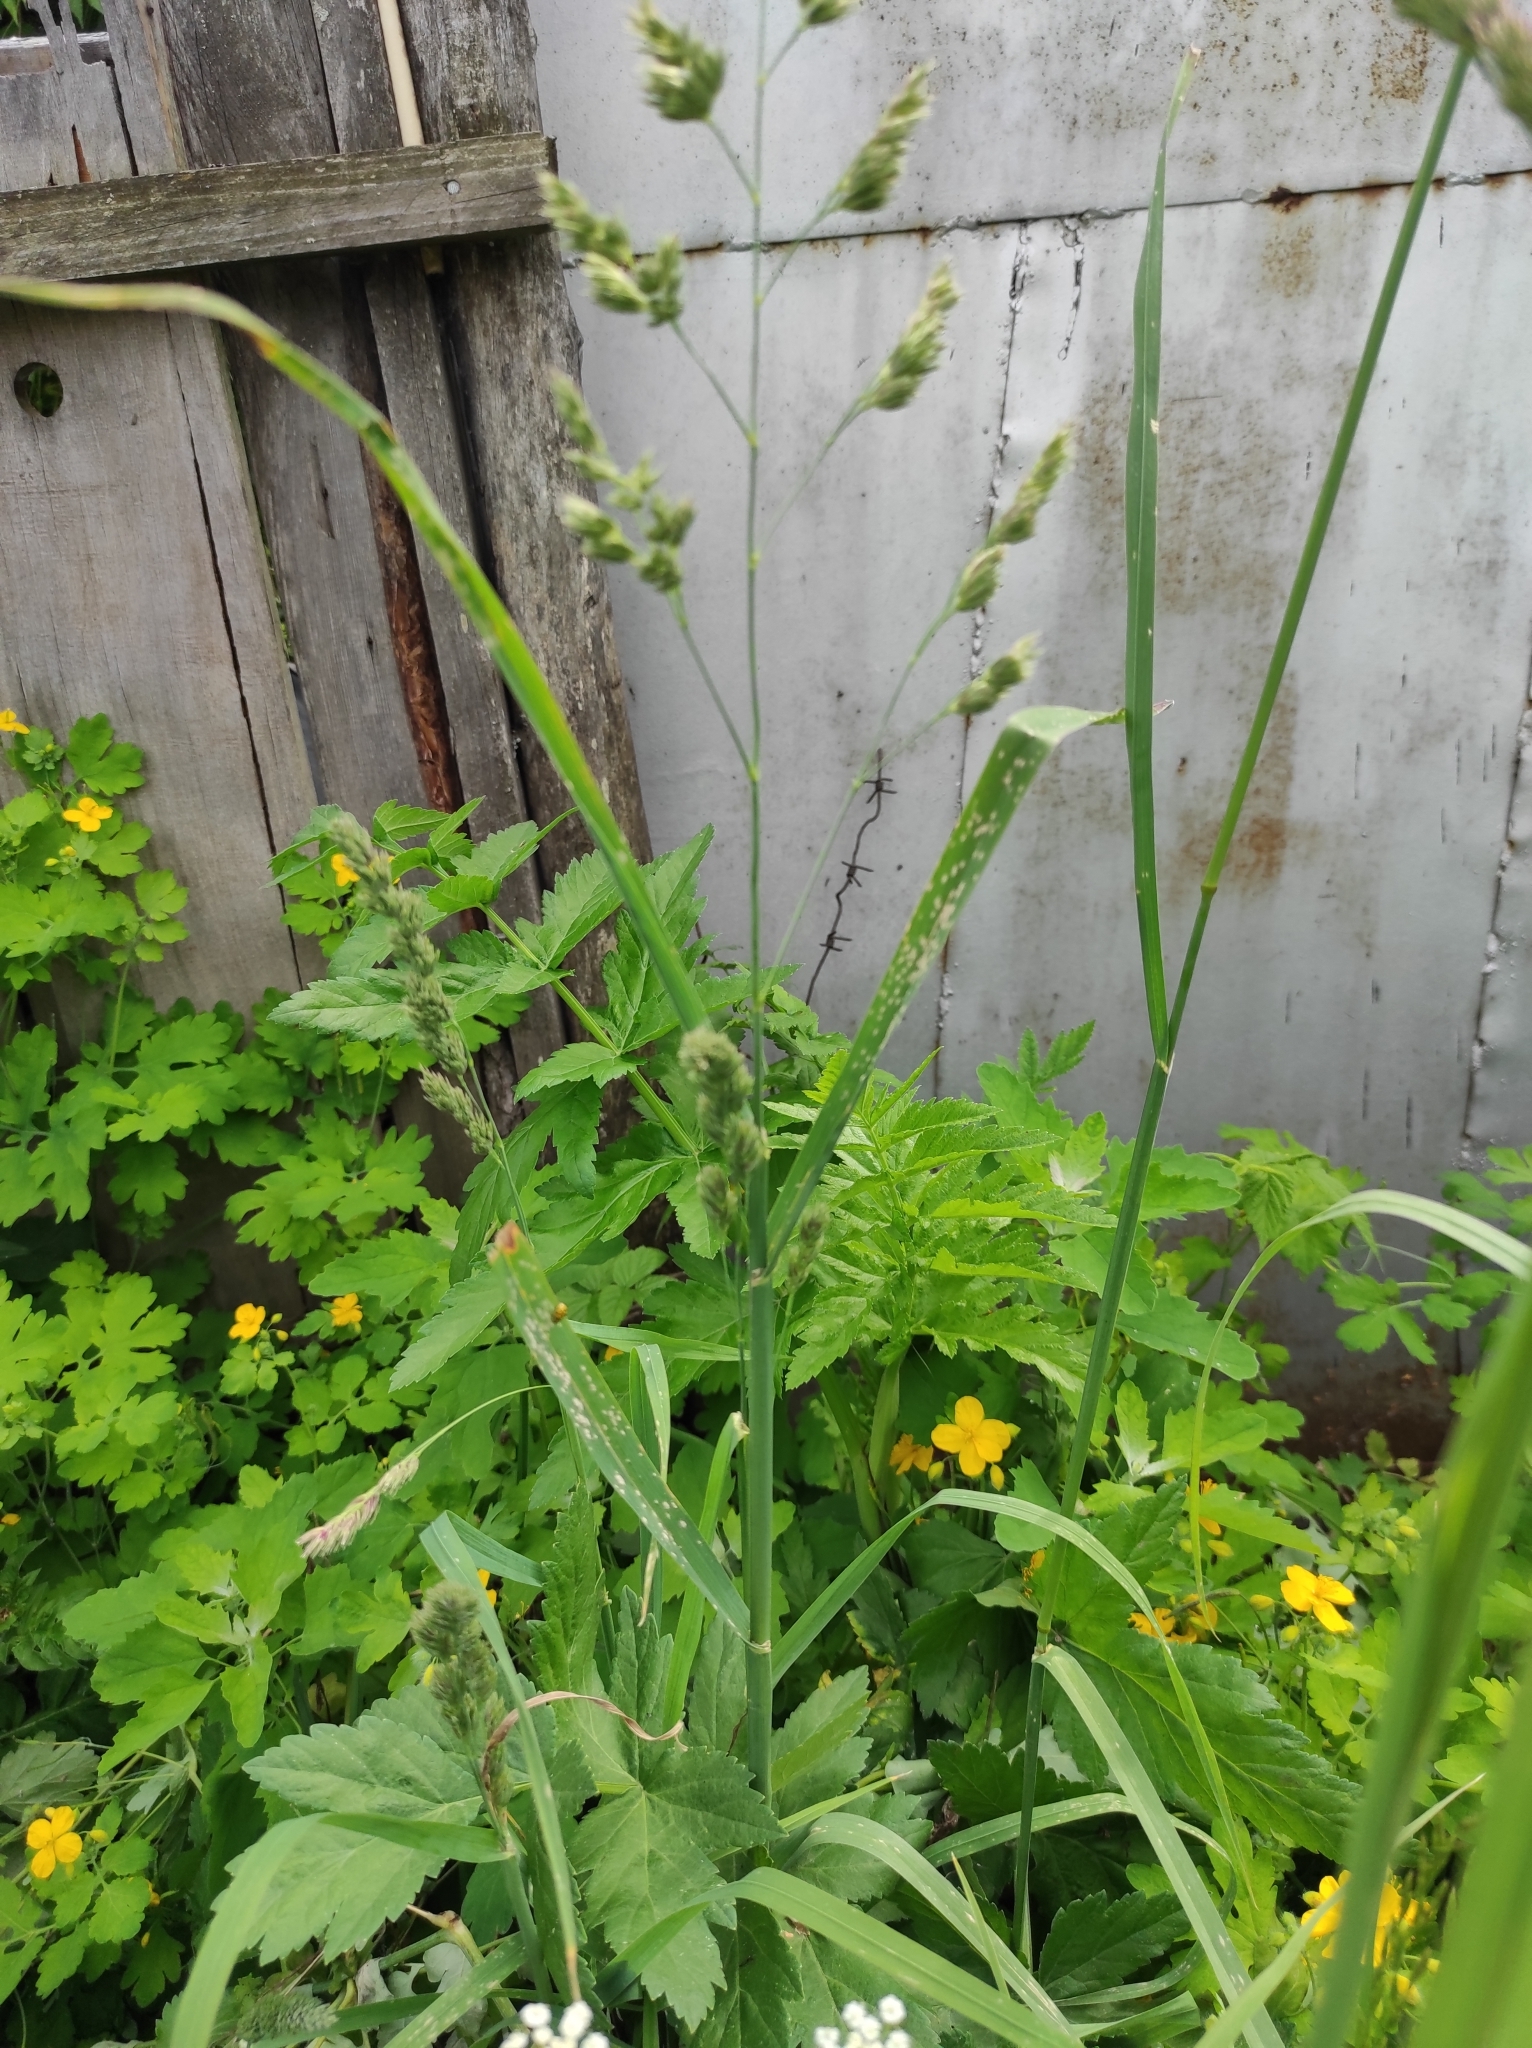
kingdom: Animalia
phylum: Arthropoda
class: Insecta
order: Coleoptera
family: Coccinellidae
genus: Psyllobora
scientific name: Psyllobora vigintiduopunctata
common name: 22-spot ladybird
